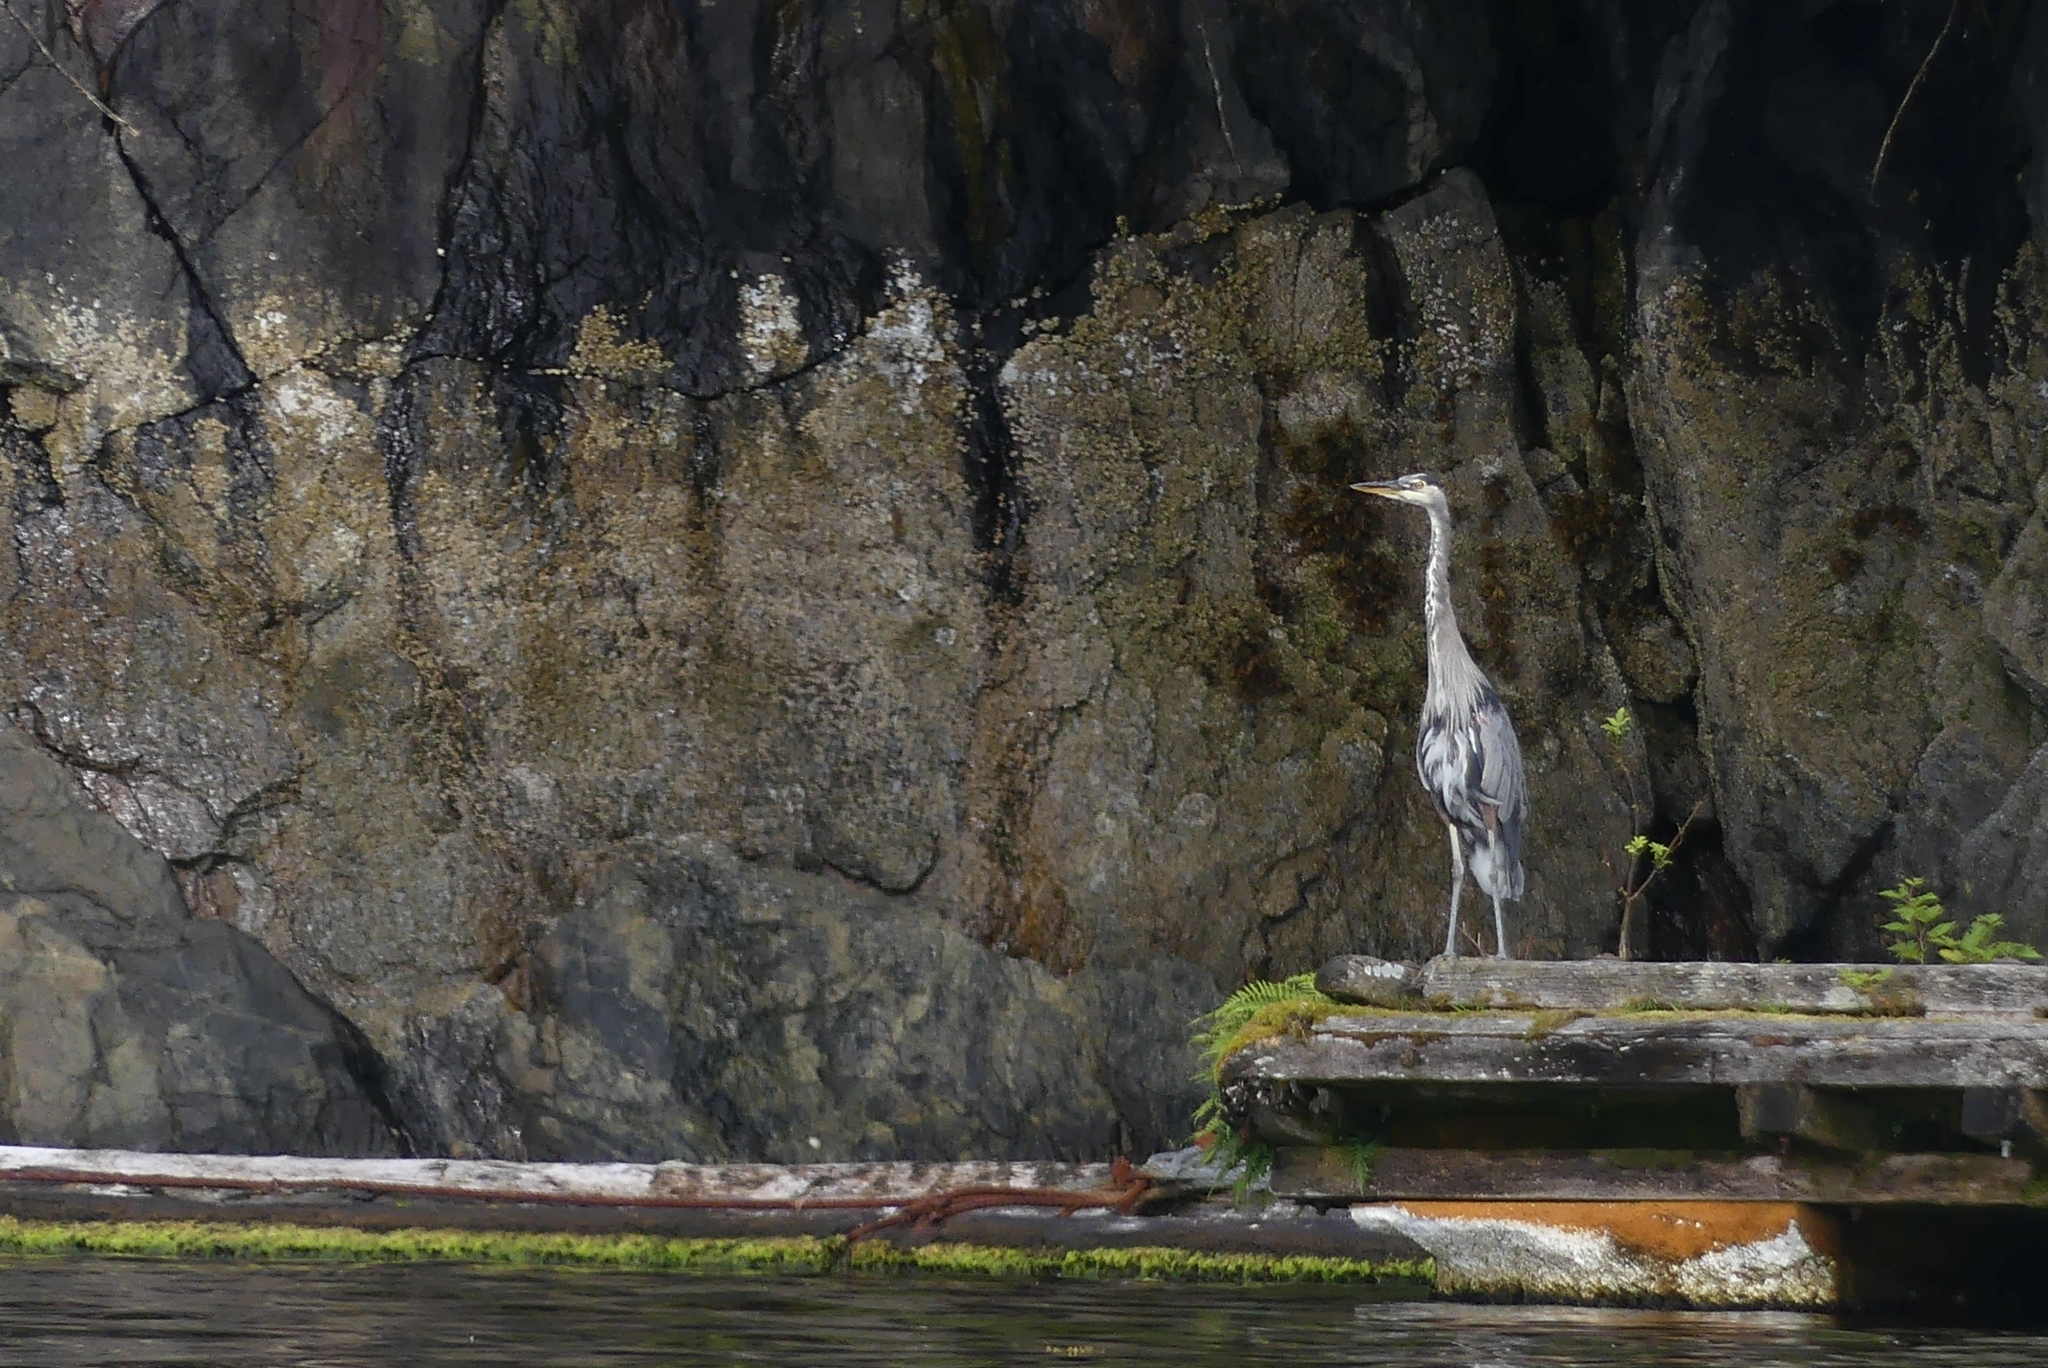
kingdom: Animalia
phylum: Chordata
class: Aves
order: Pelecaniformes
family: Ardeidae
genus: Ardea
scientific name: Ardea herodias
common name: Great blue heron
